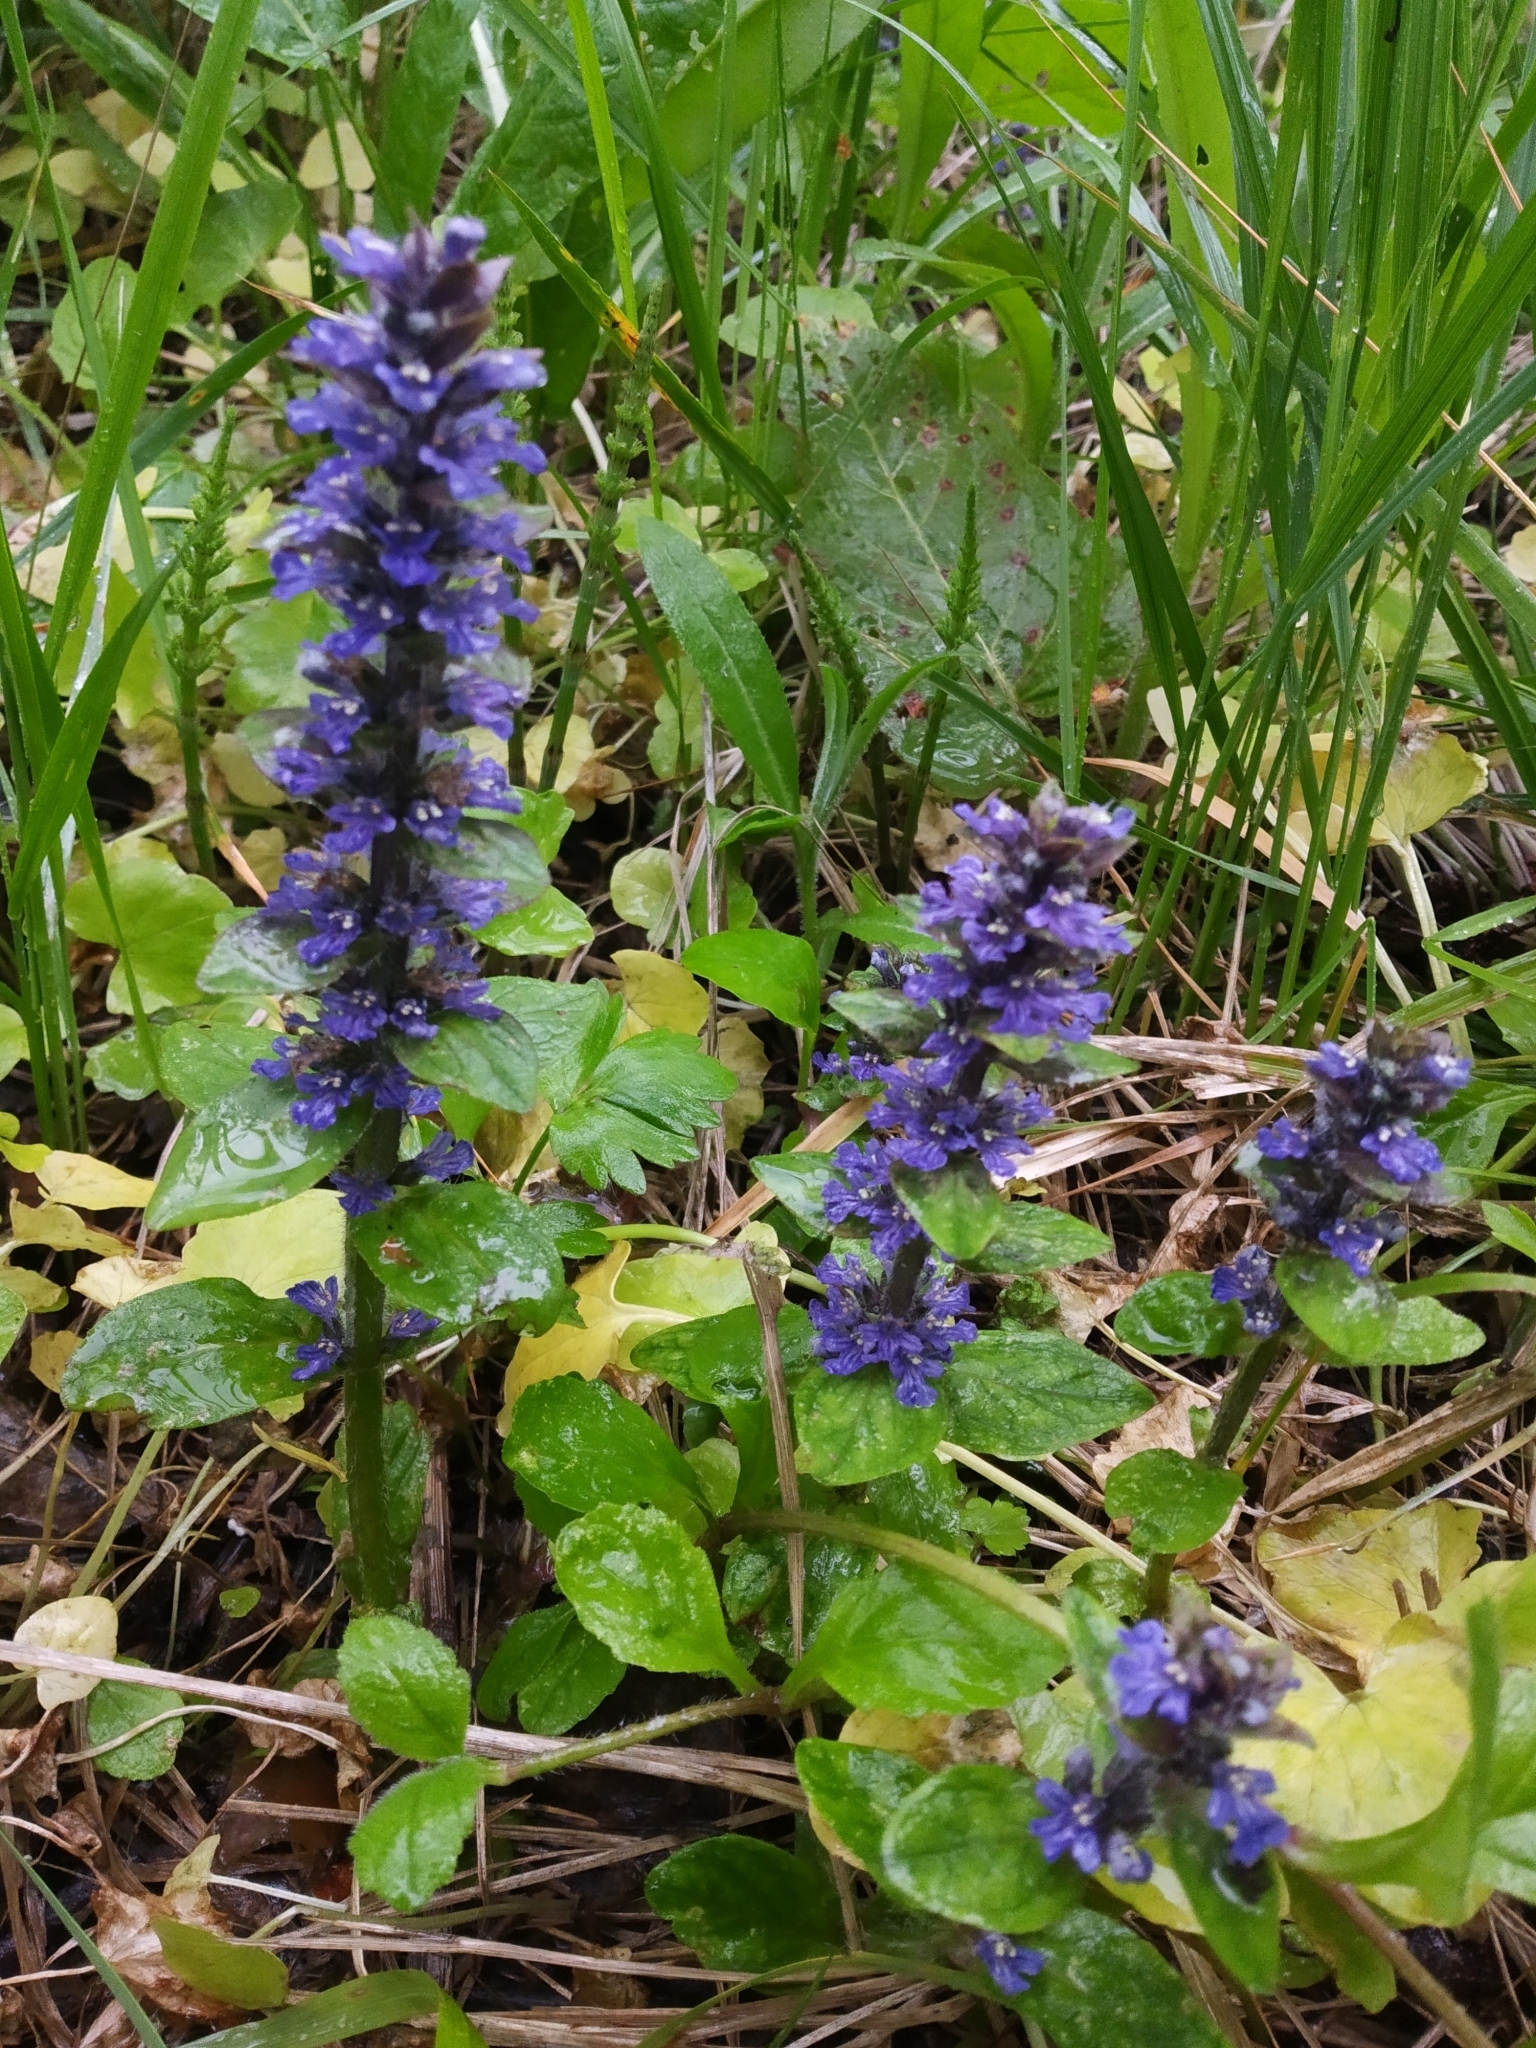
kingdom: Plantae
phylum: Tracheophyta
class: Magnoliopsida
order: Lamiales
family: Lamiaceae
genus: Ajuga
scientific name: Ajuga reptans
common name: Bugle
